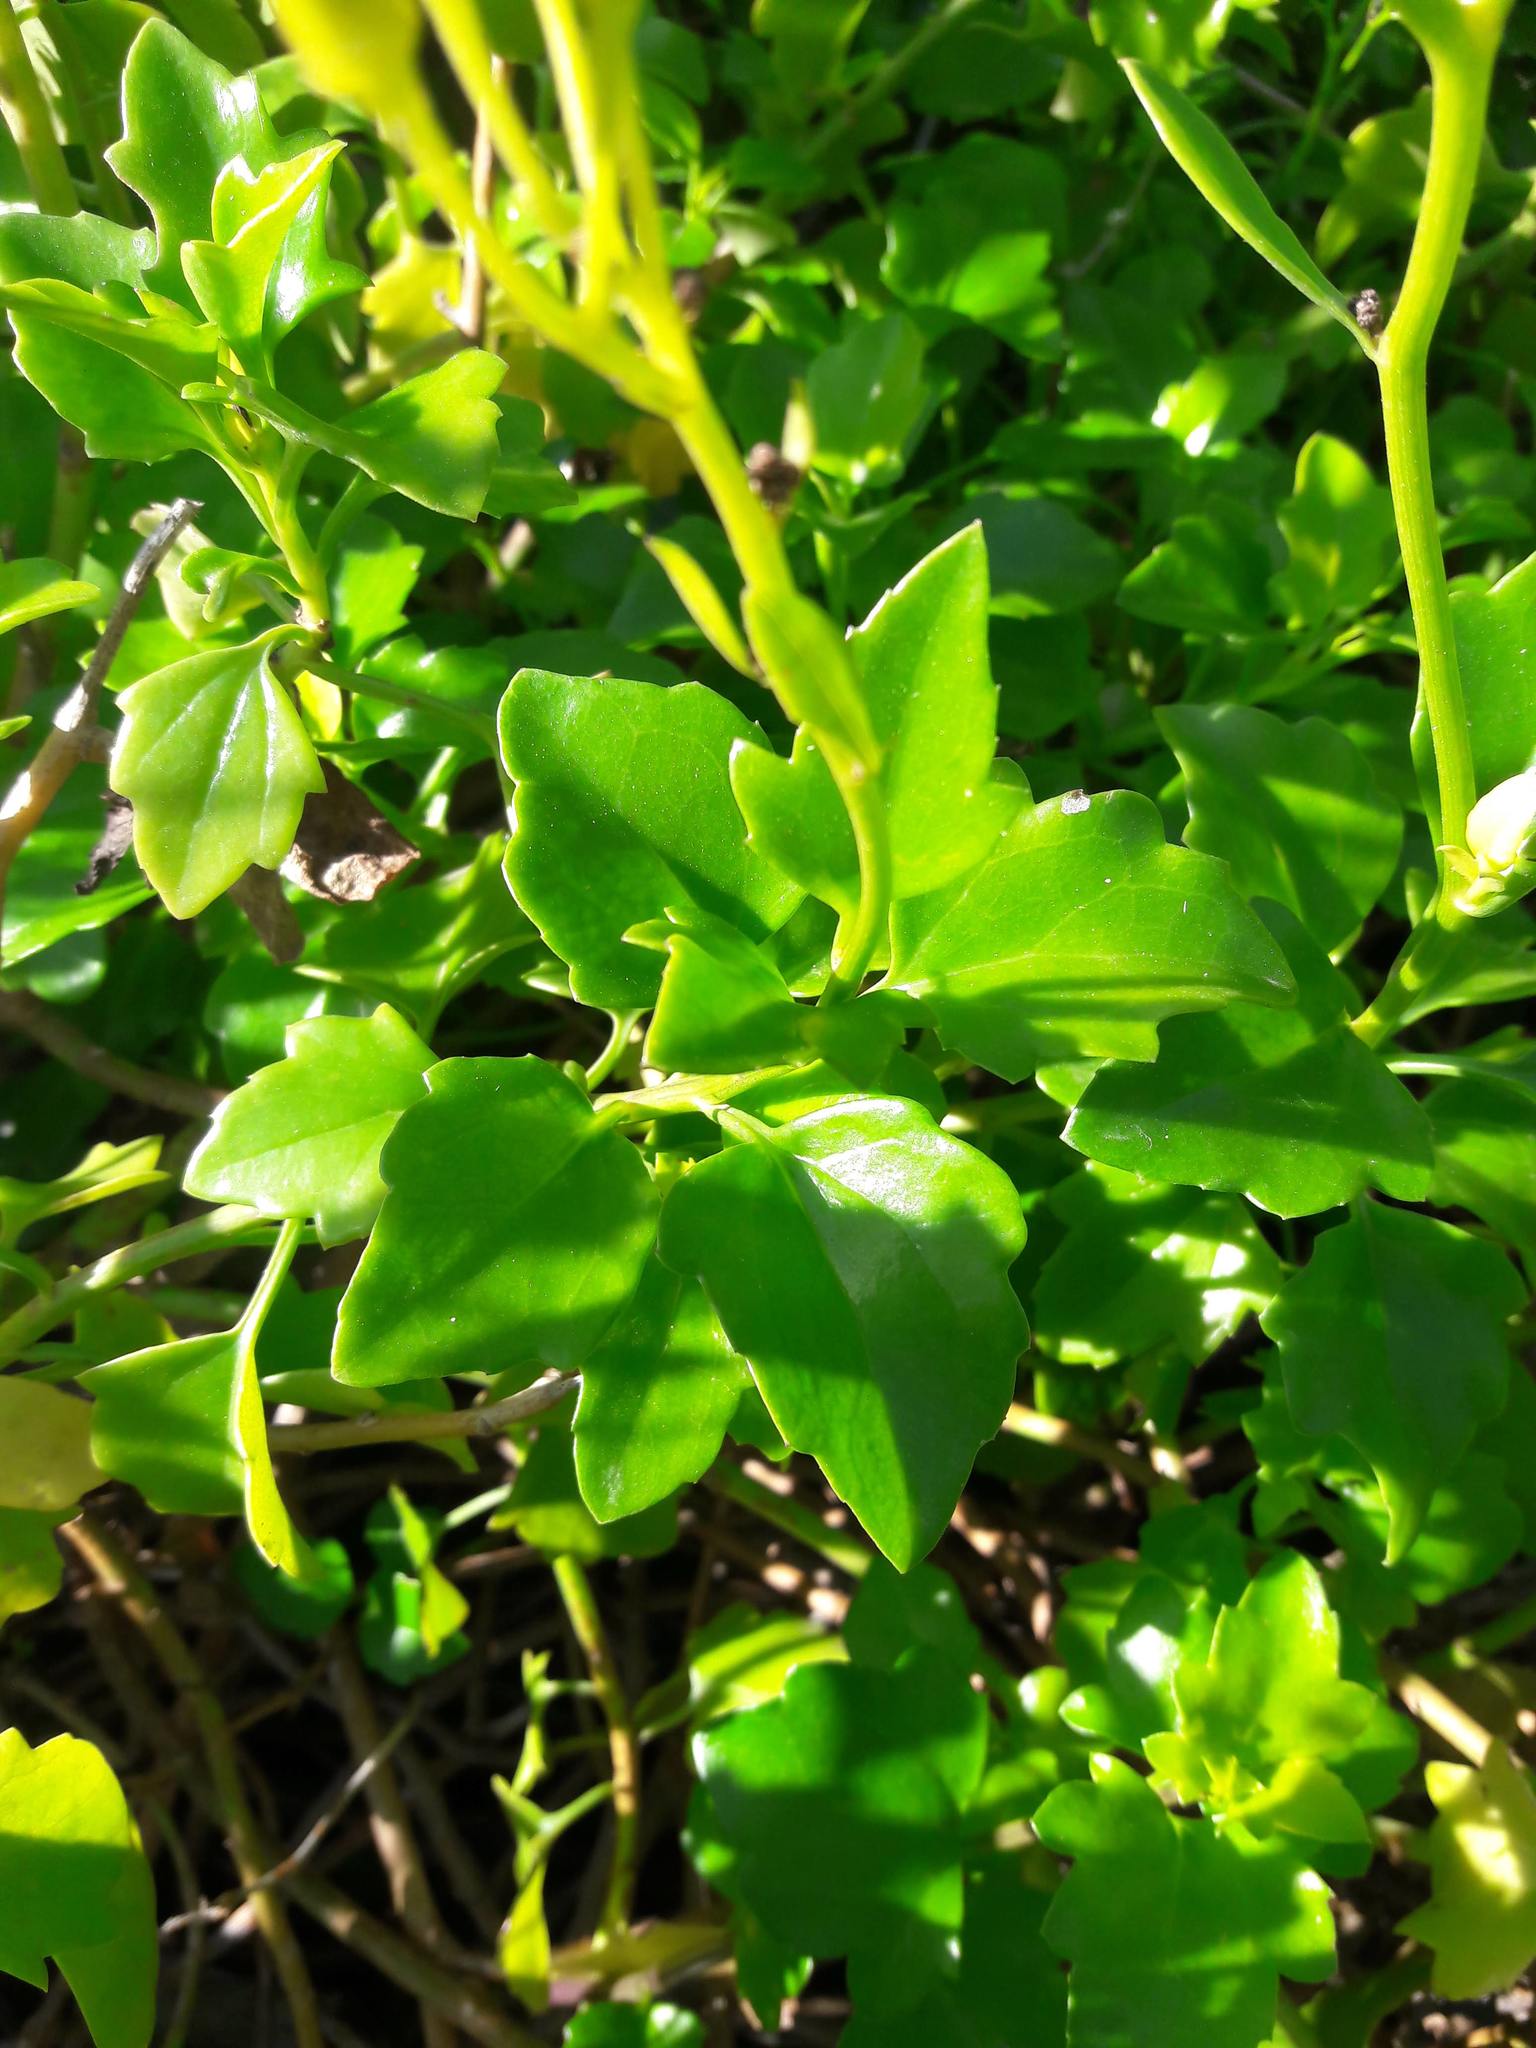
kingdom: Plantae
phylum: Tracheophyta
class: Magnoliopsida
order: Asterales
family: Asteraceae
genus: Senecio
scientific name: Senecio angulatus
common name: Climbing groundsel
